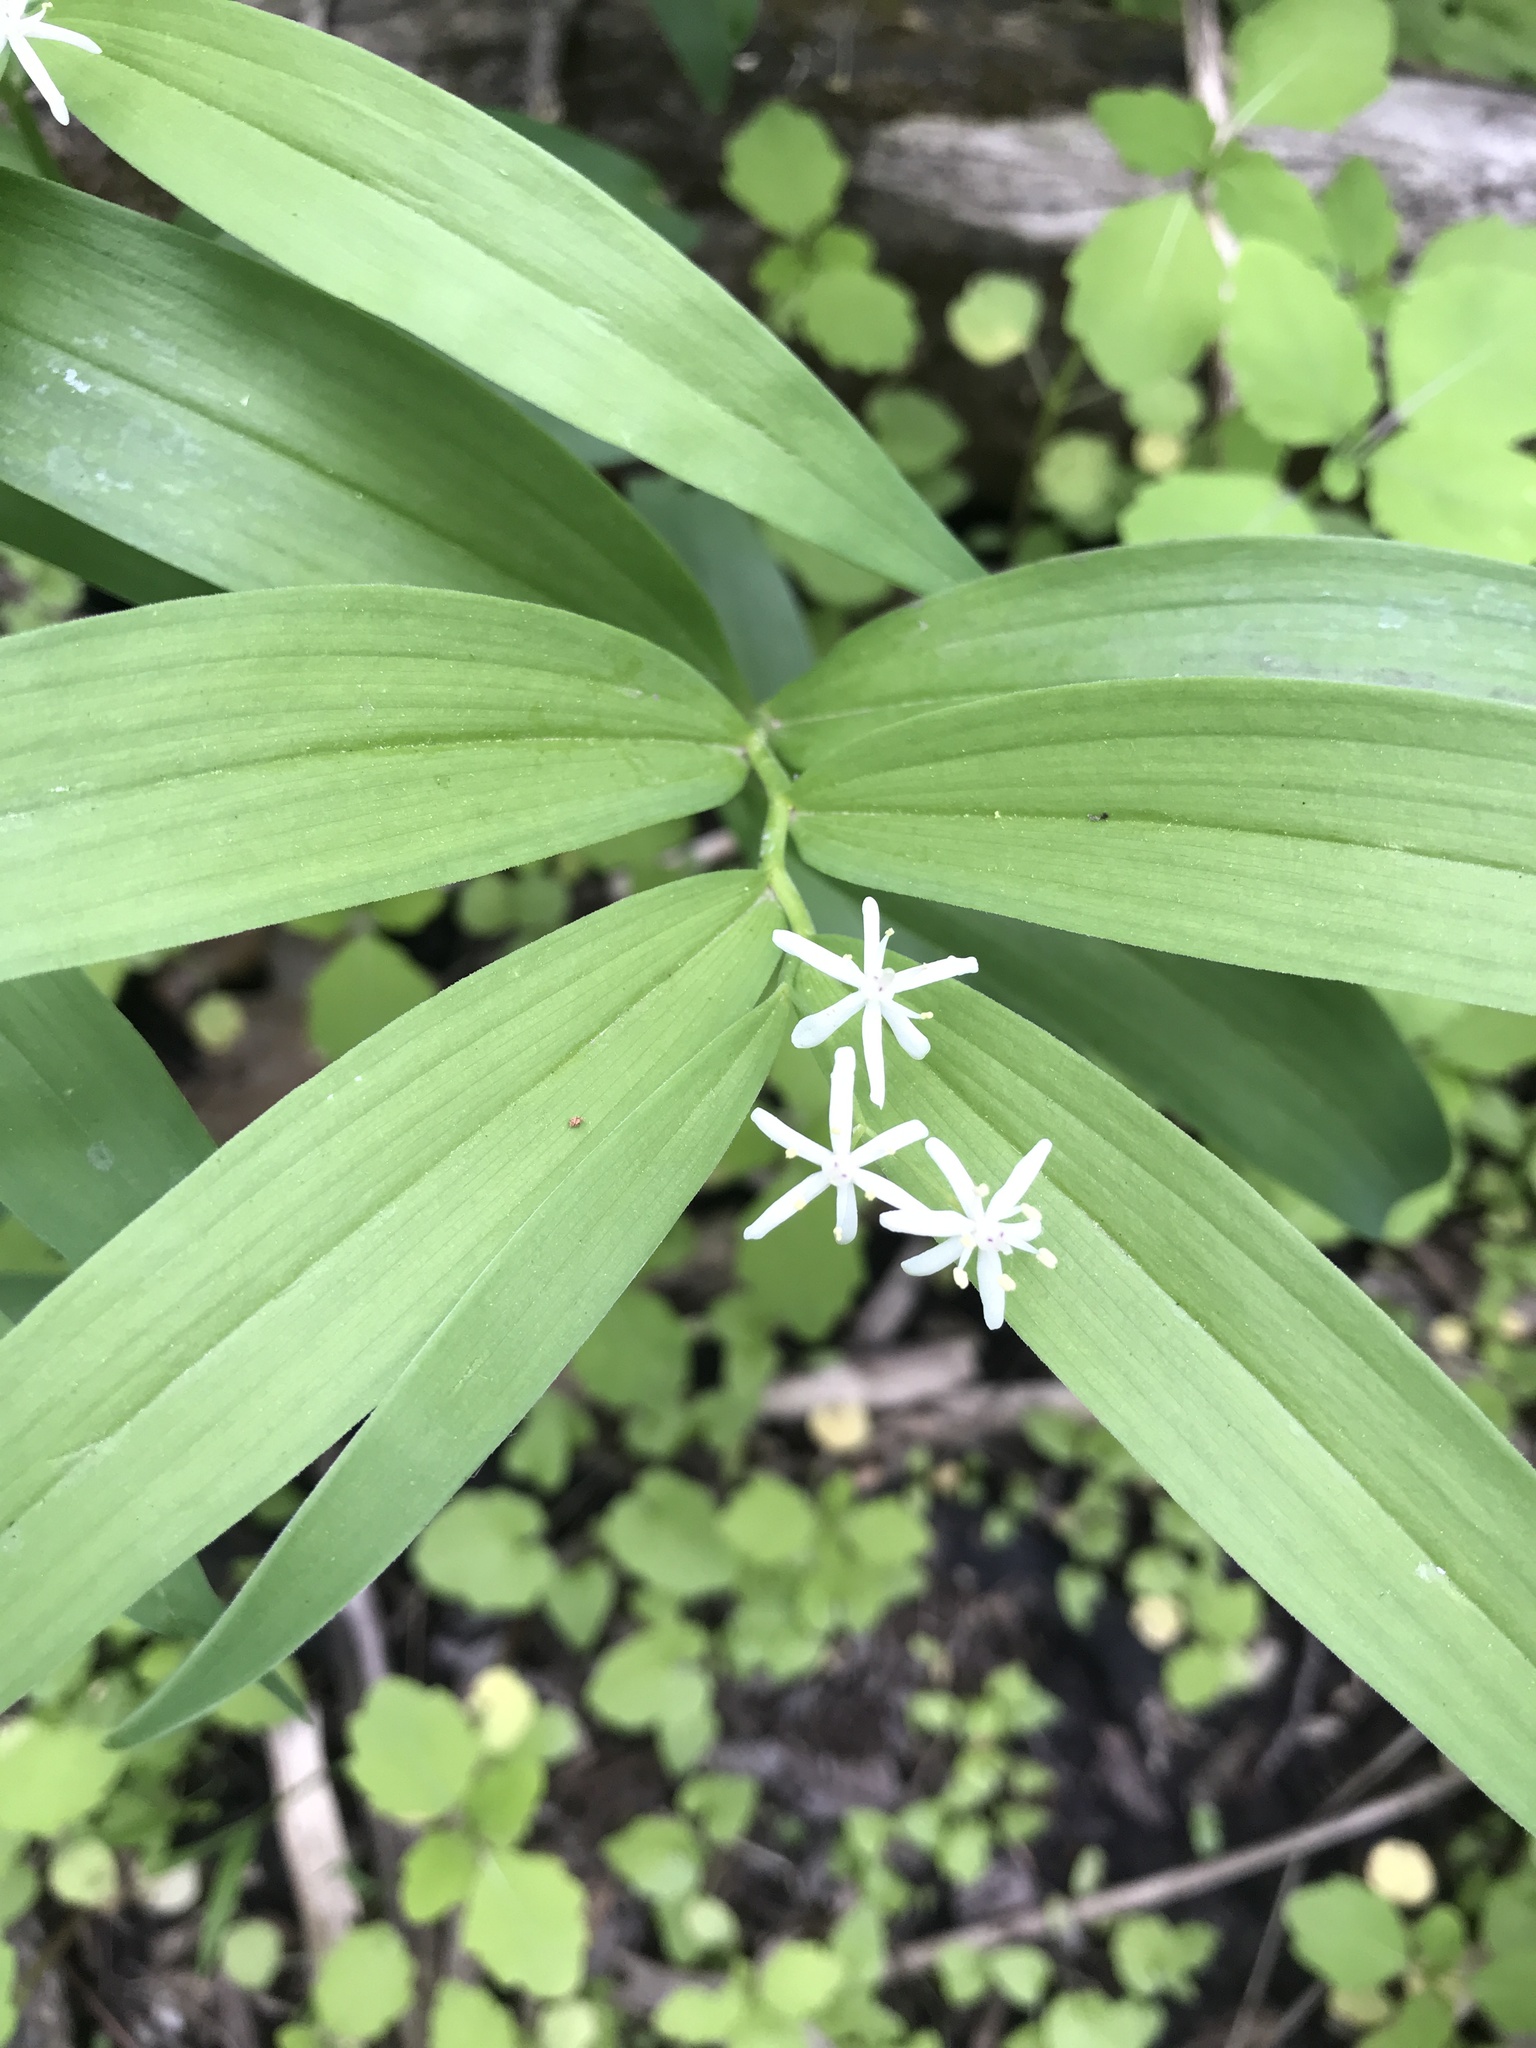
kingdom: Plantae
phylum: Tracheophyta
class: Liliopsida
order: Asparagales
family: Asparagaceae
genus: Maianthemum
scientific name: Maianthemum stellatum
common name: Little false solomon's seal
